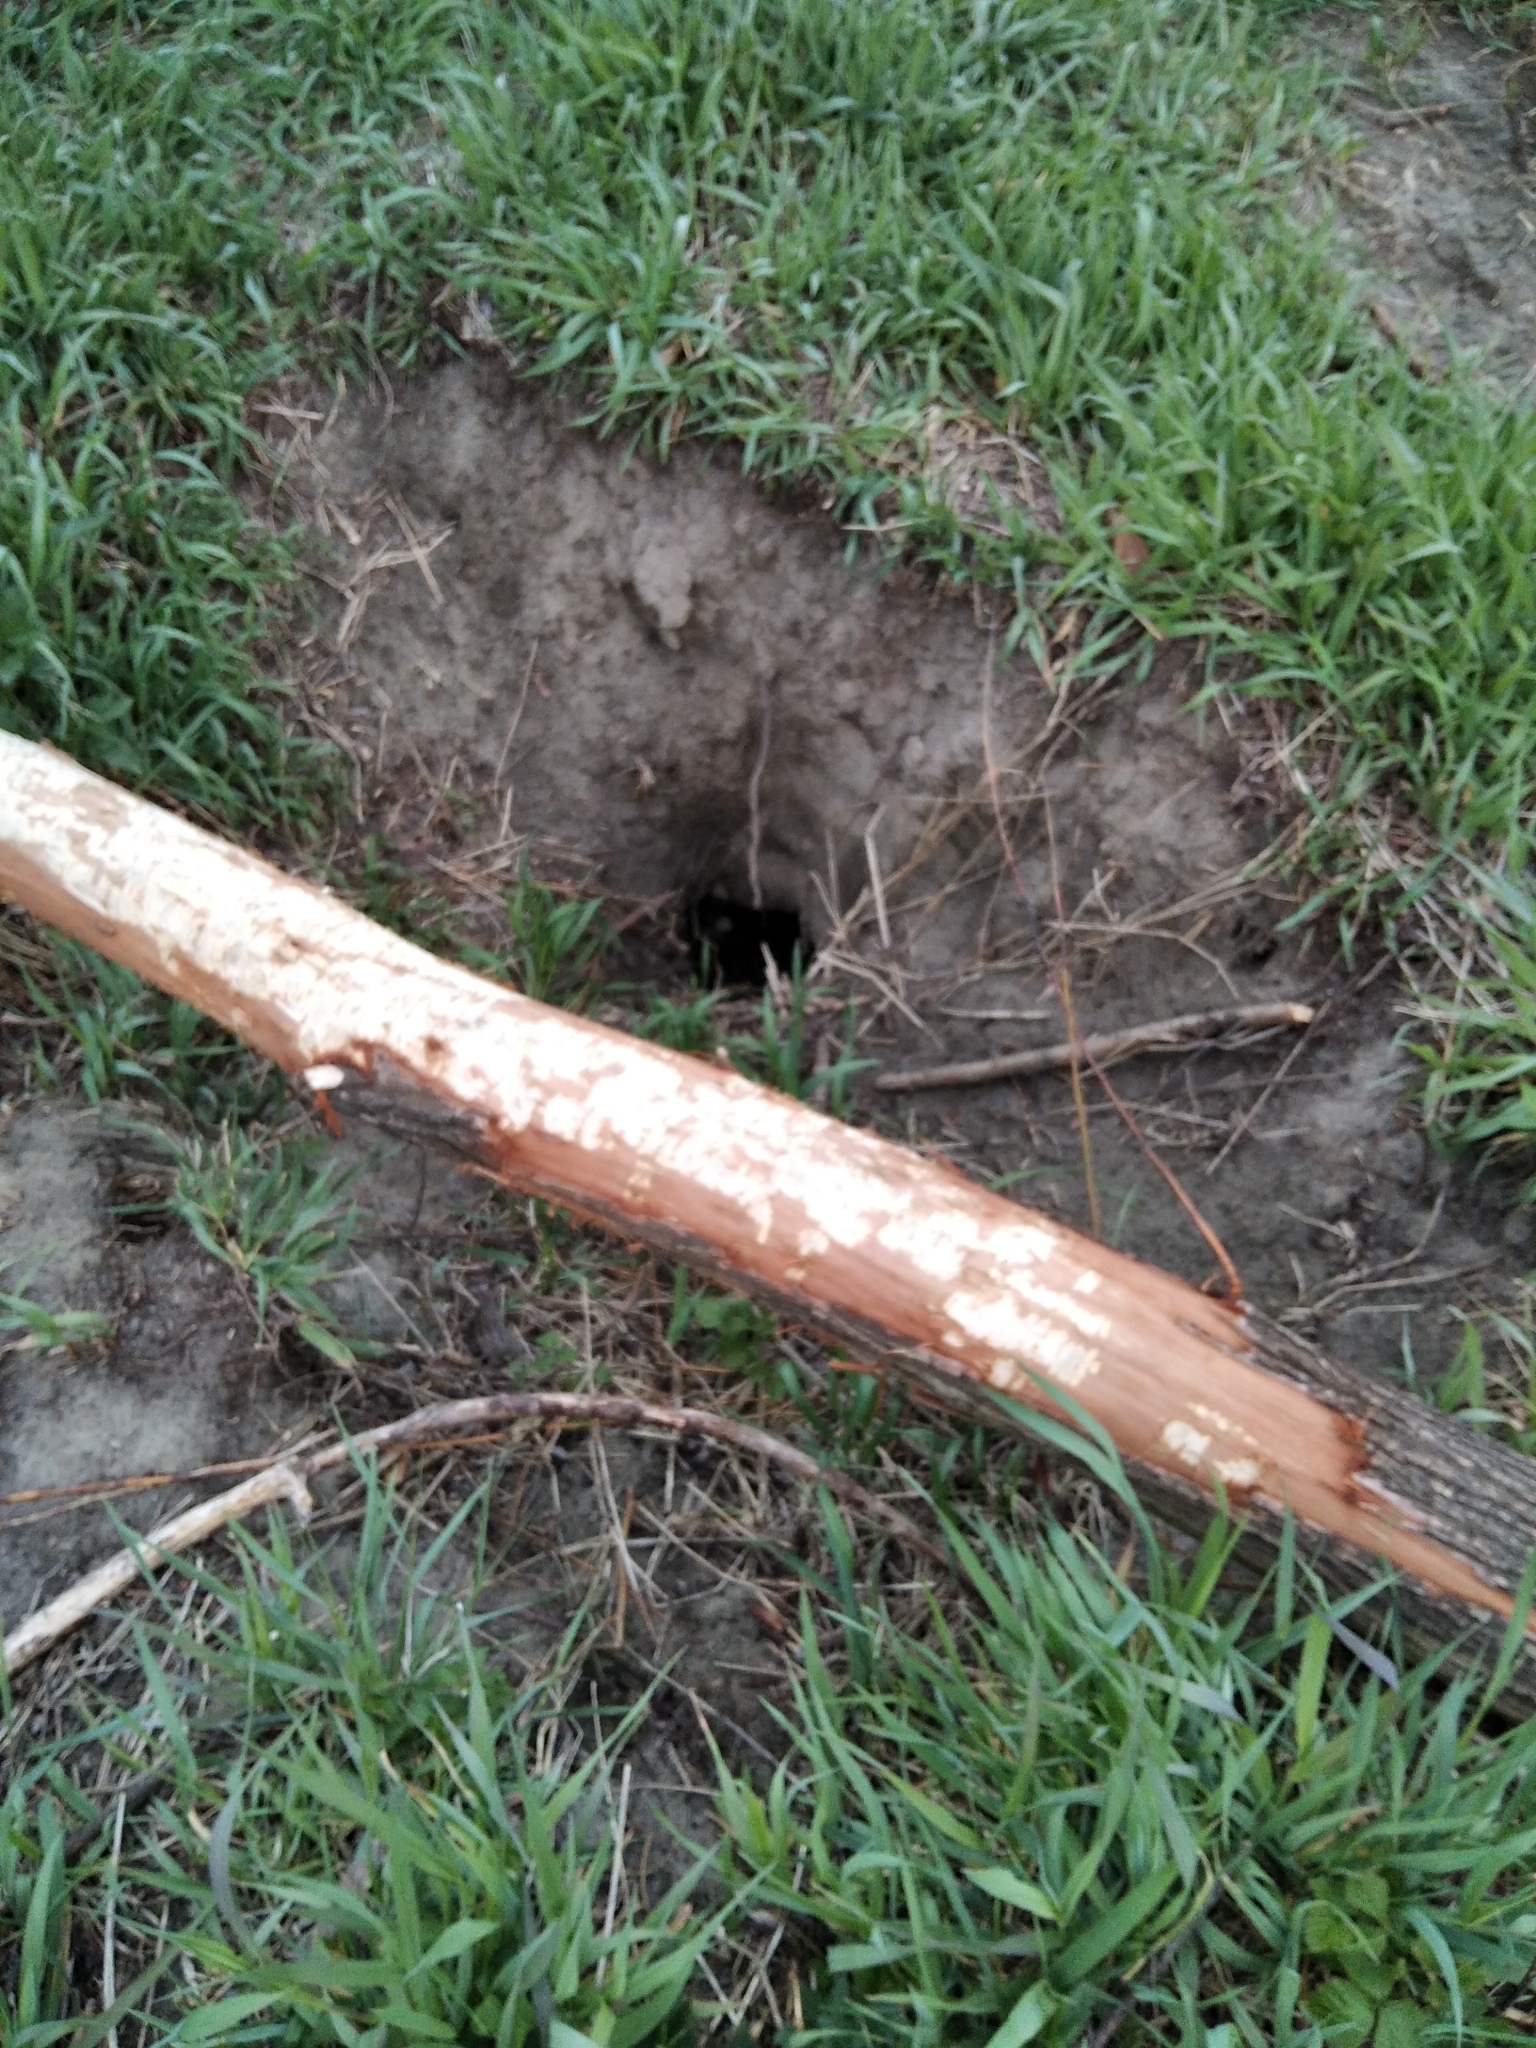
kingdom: Animalia
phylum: Chordata
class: Mammalia
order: Rodentia
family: Castoridae
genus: Castor
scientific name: Castor fiber
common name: Eurasian beaver
